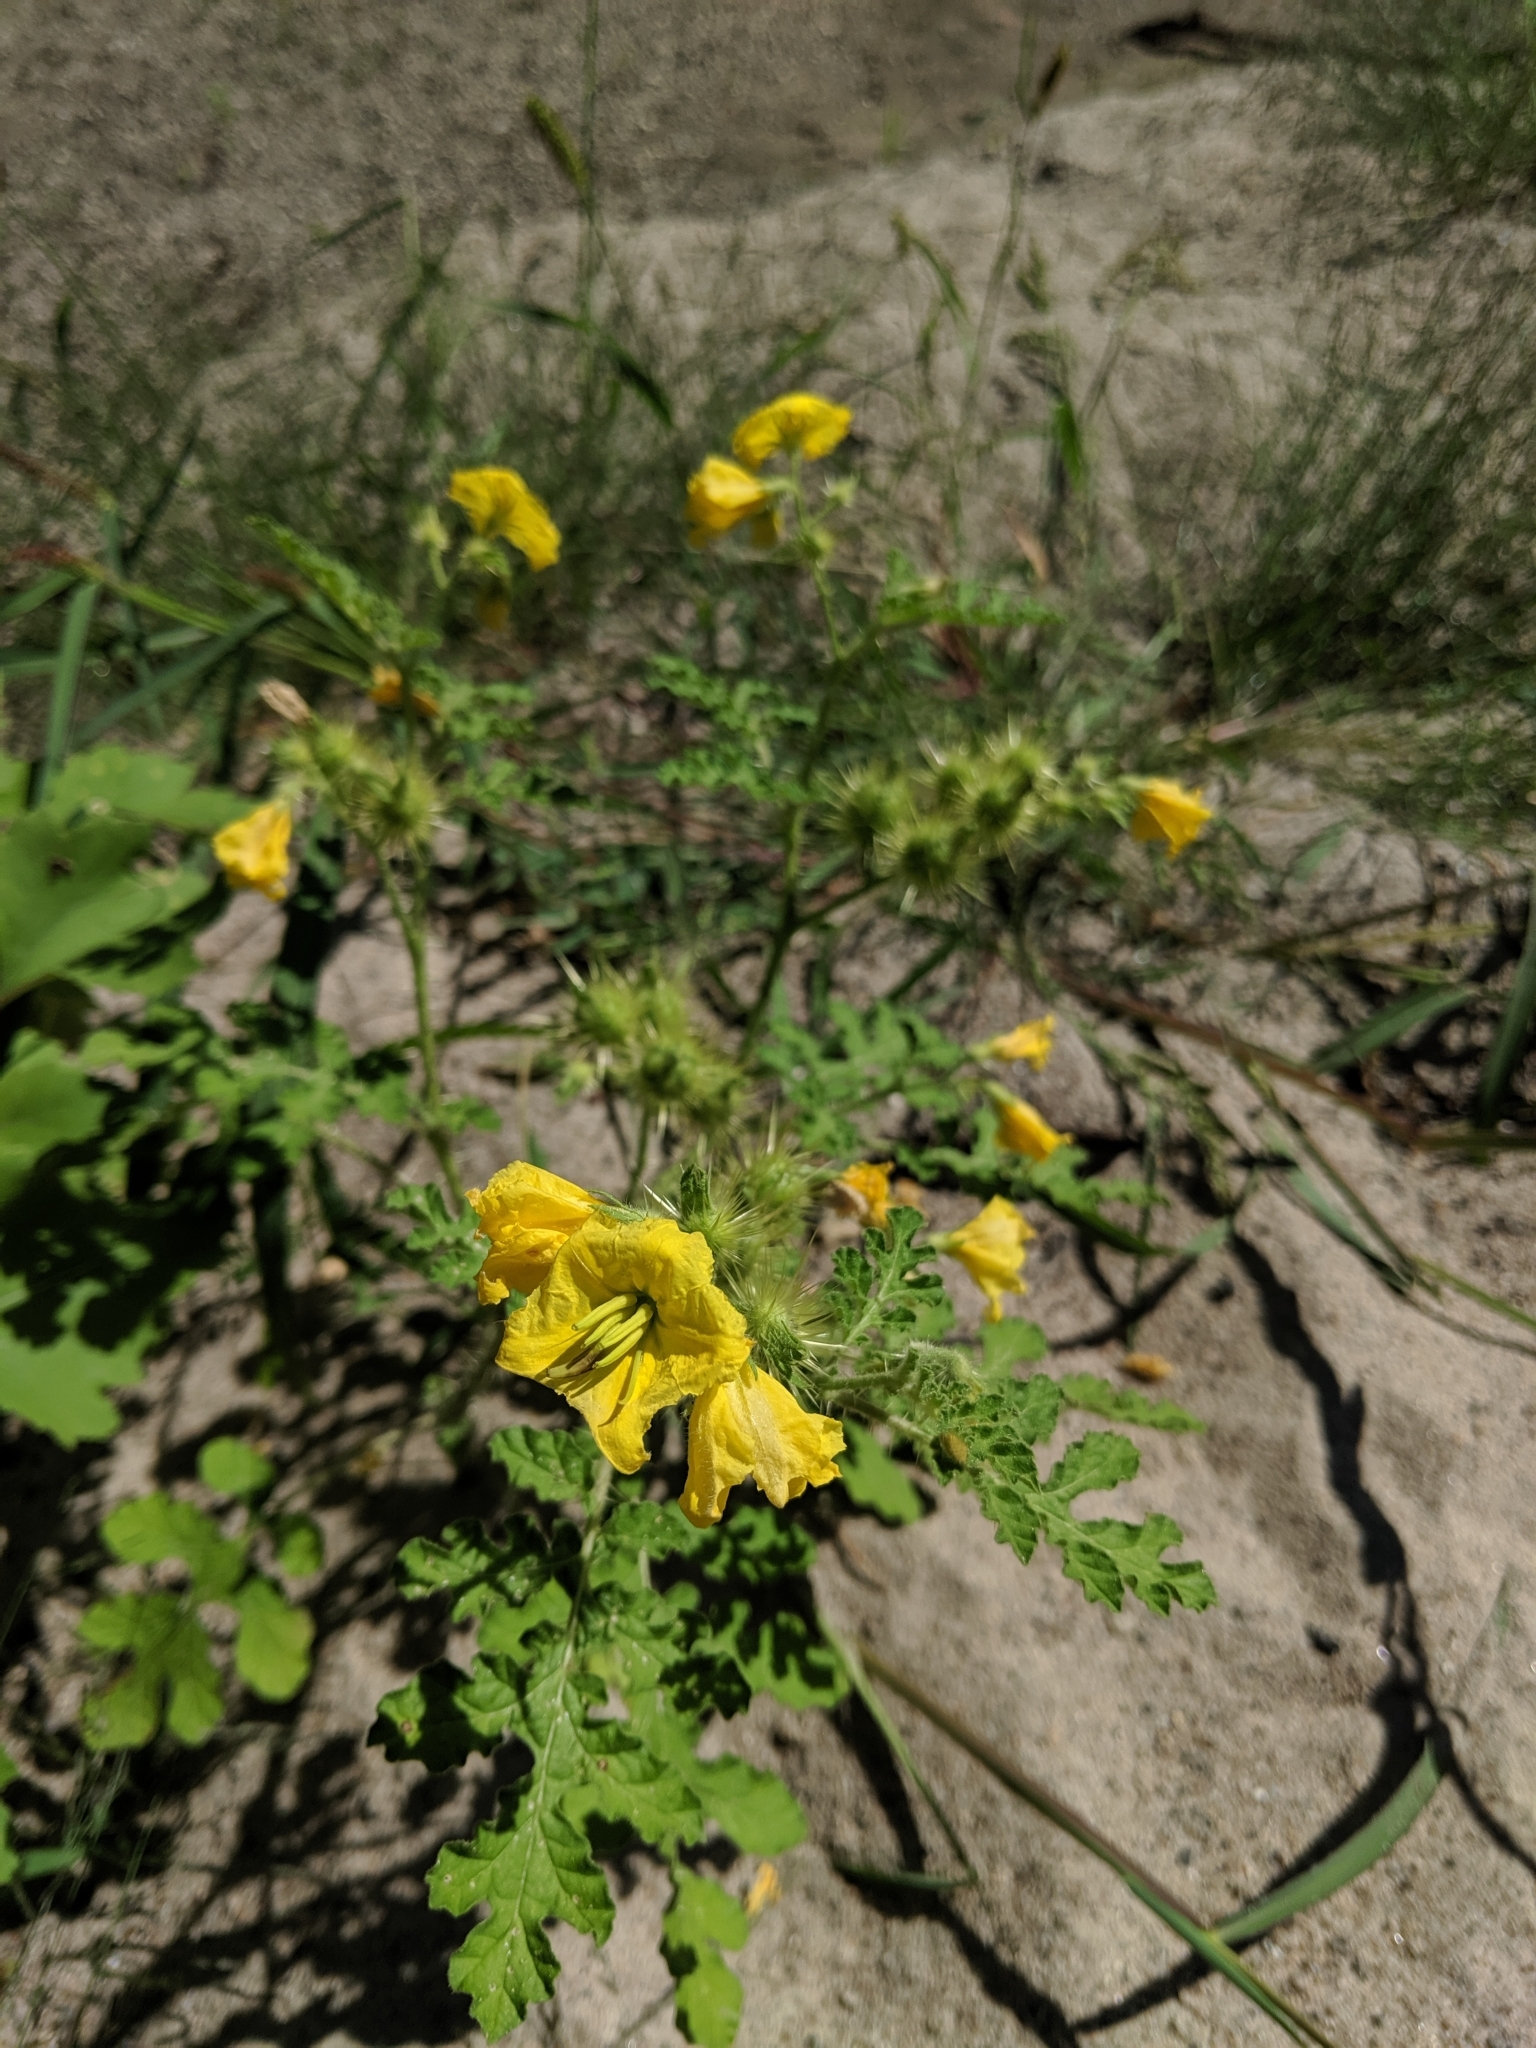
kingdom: Plantae
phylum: Tracheophyta
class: Magnoliopsida
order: Solanales
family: Solanaceae
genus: Solanum
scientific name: Solanum angustifolium
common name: Buffalobur nightshade
